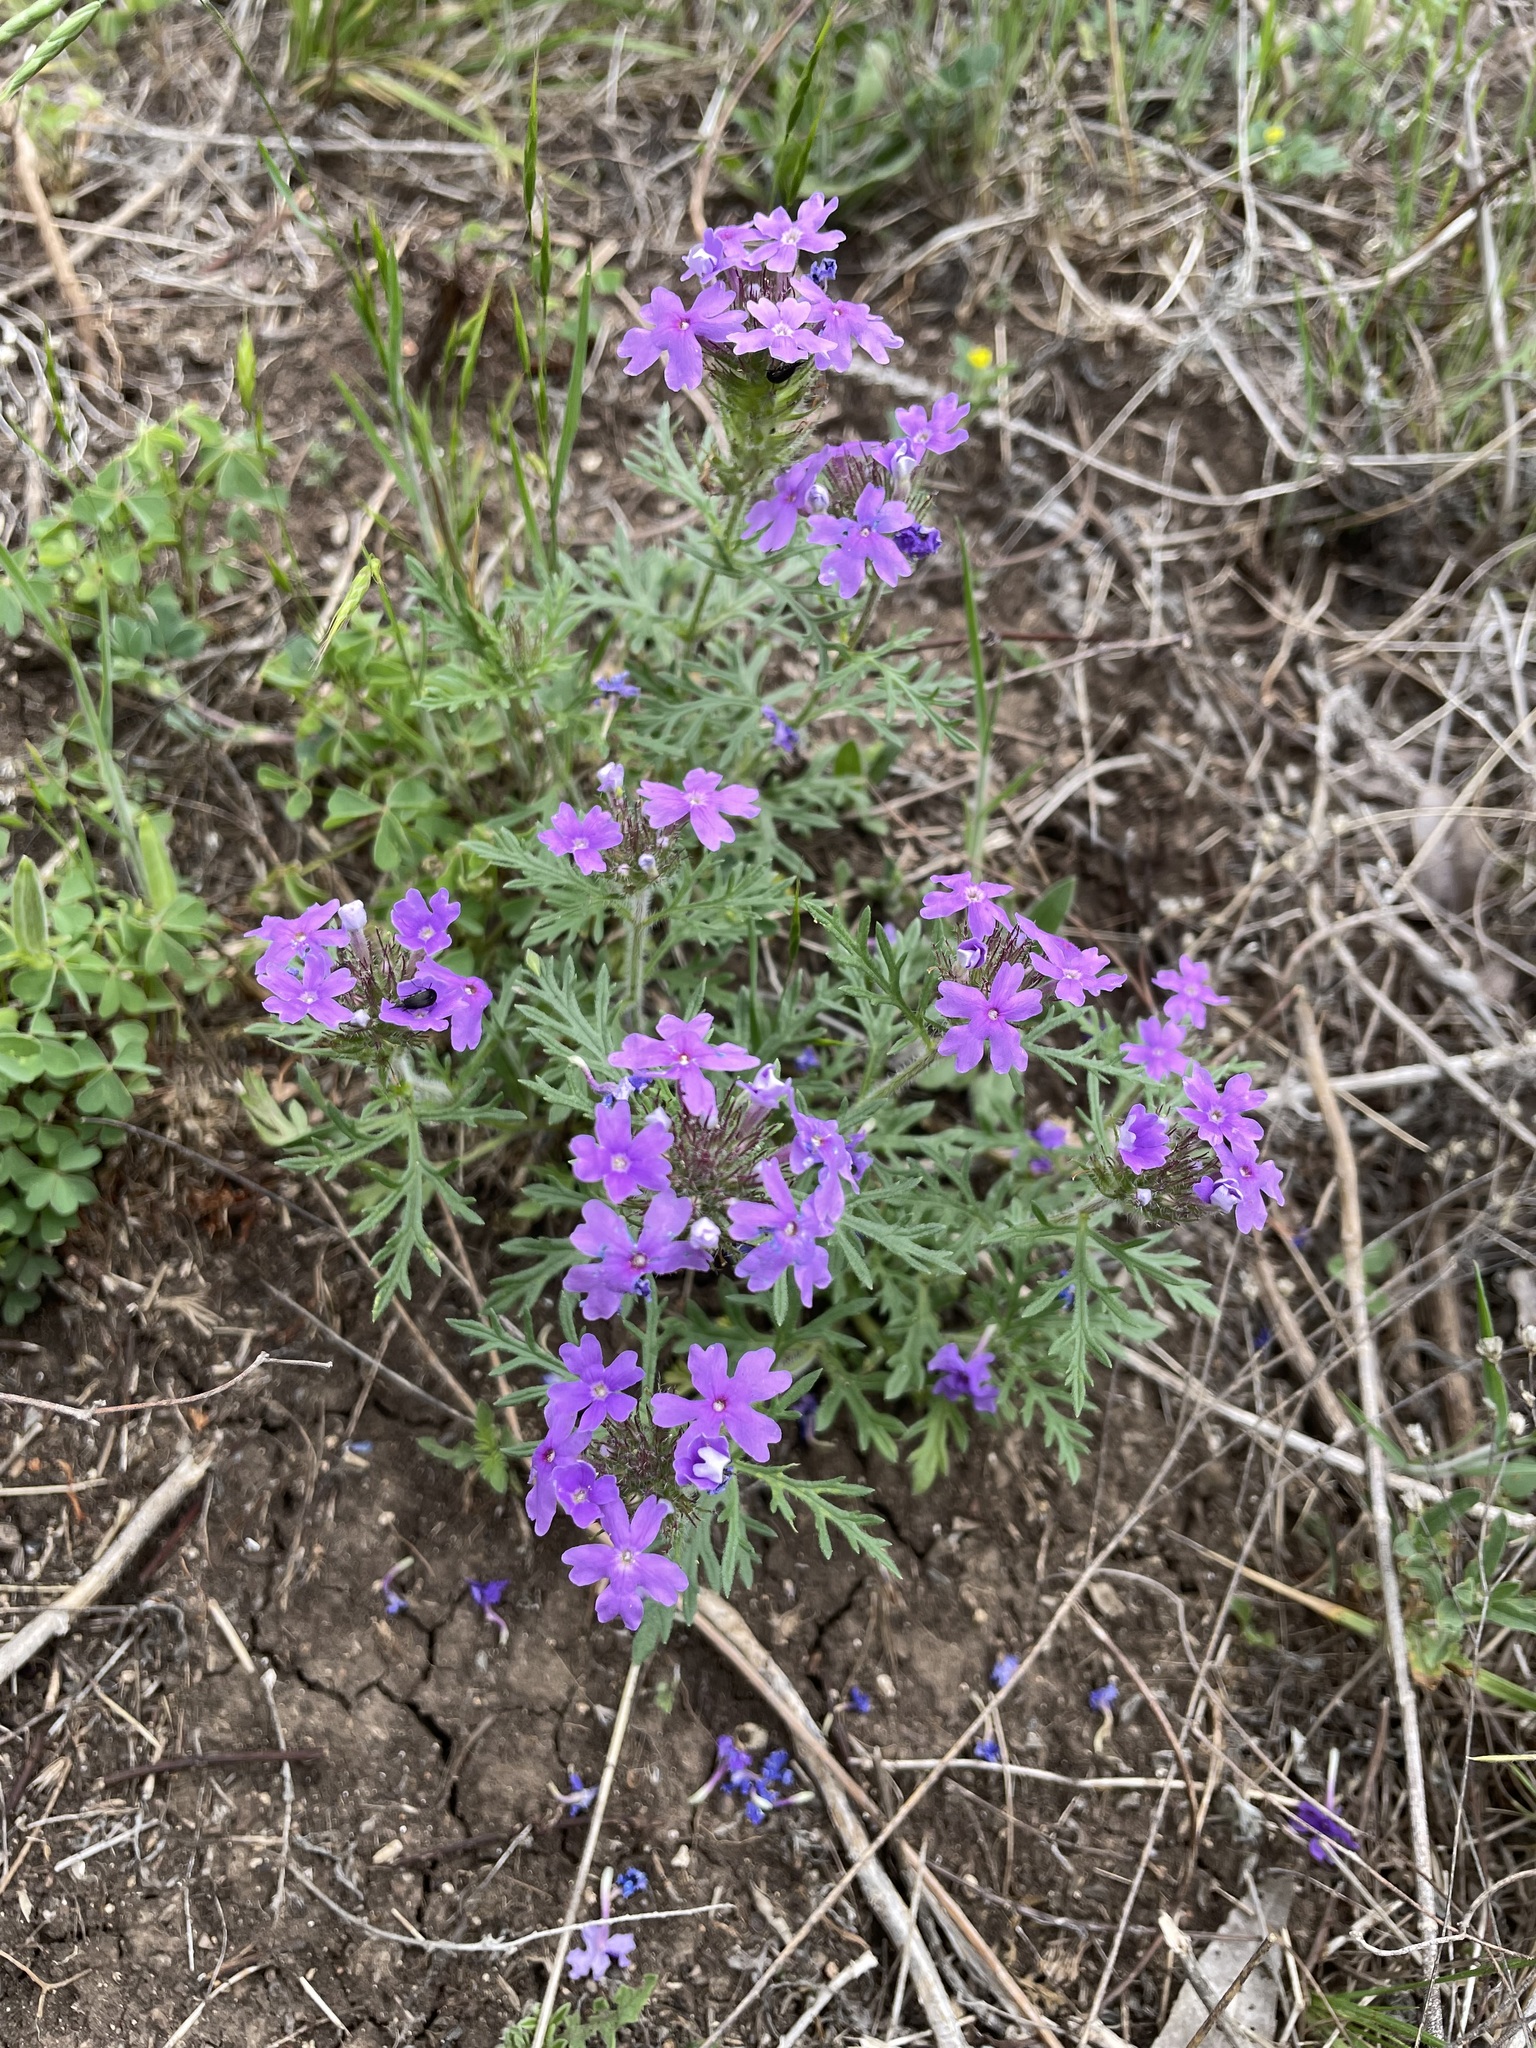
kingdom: Plantae
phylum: Tracheophyta
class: Magnoliopsida
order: Lamiales
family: Verbenaceae
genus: Verbena
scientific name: Verbena bipinnatifida
